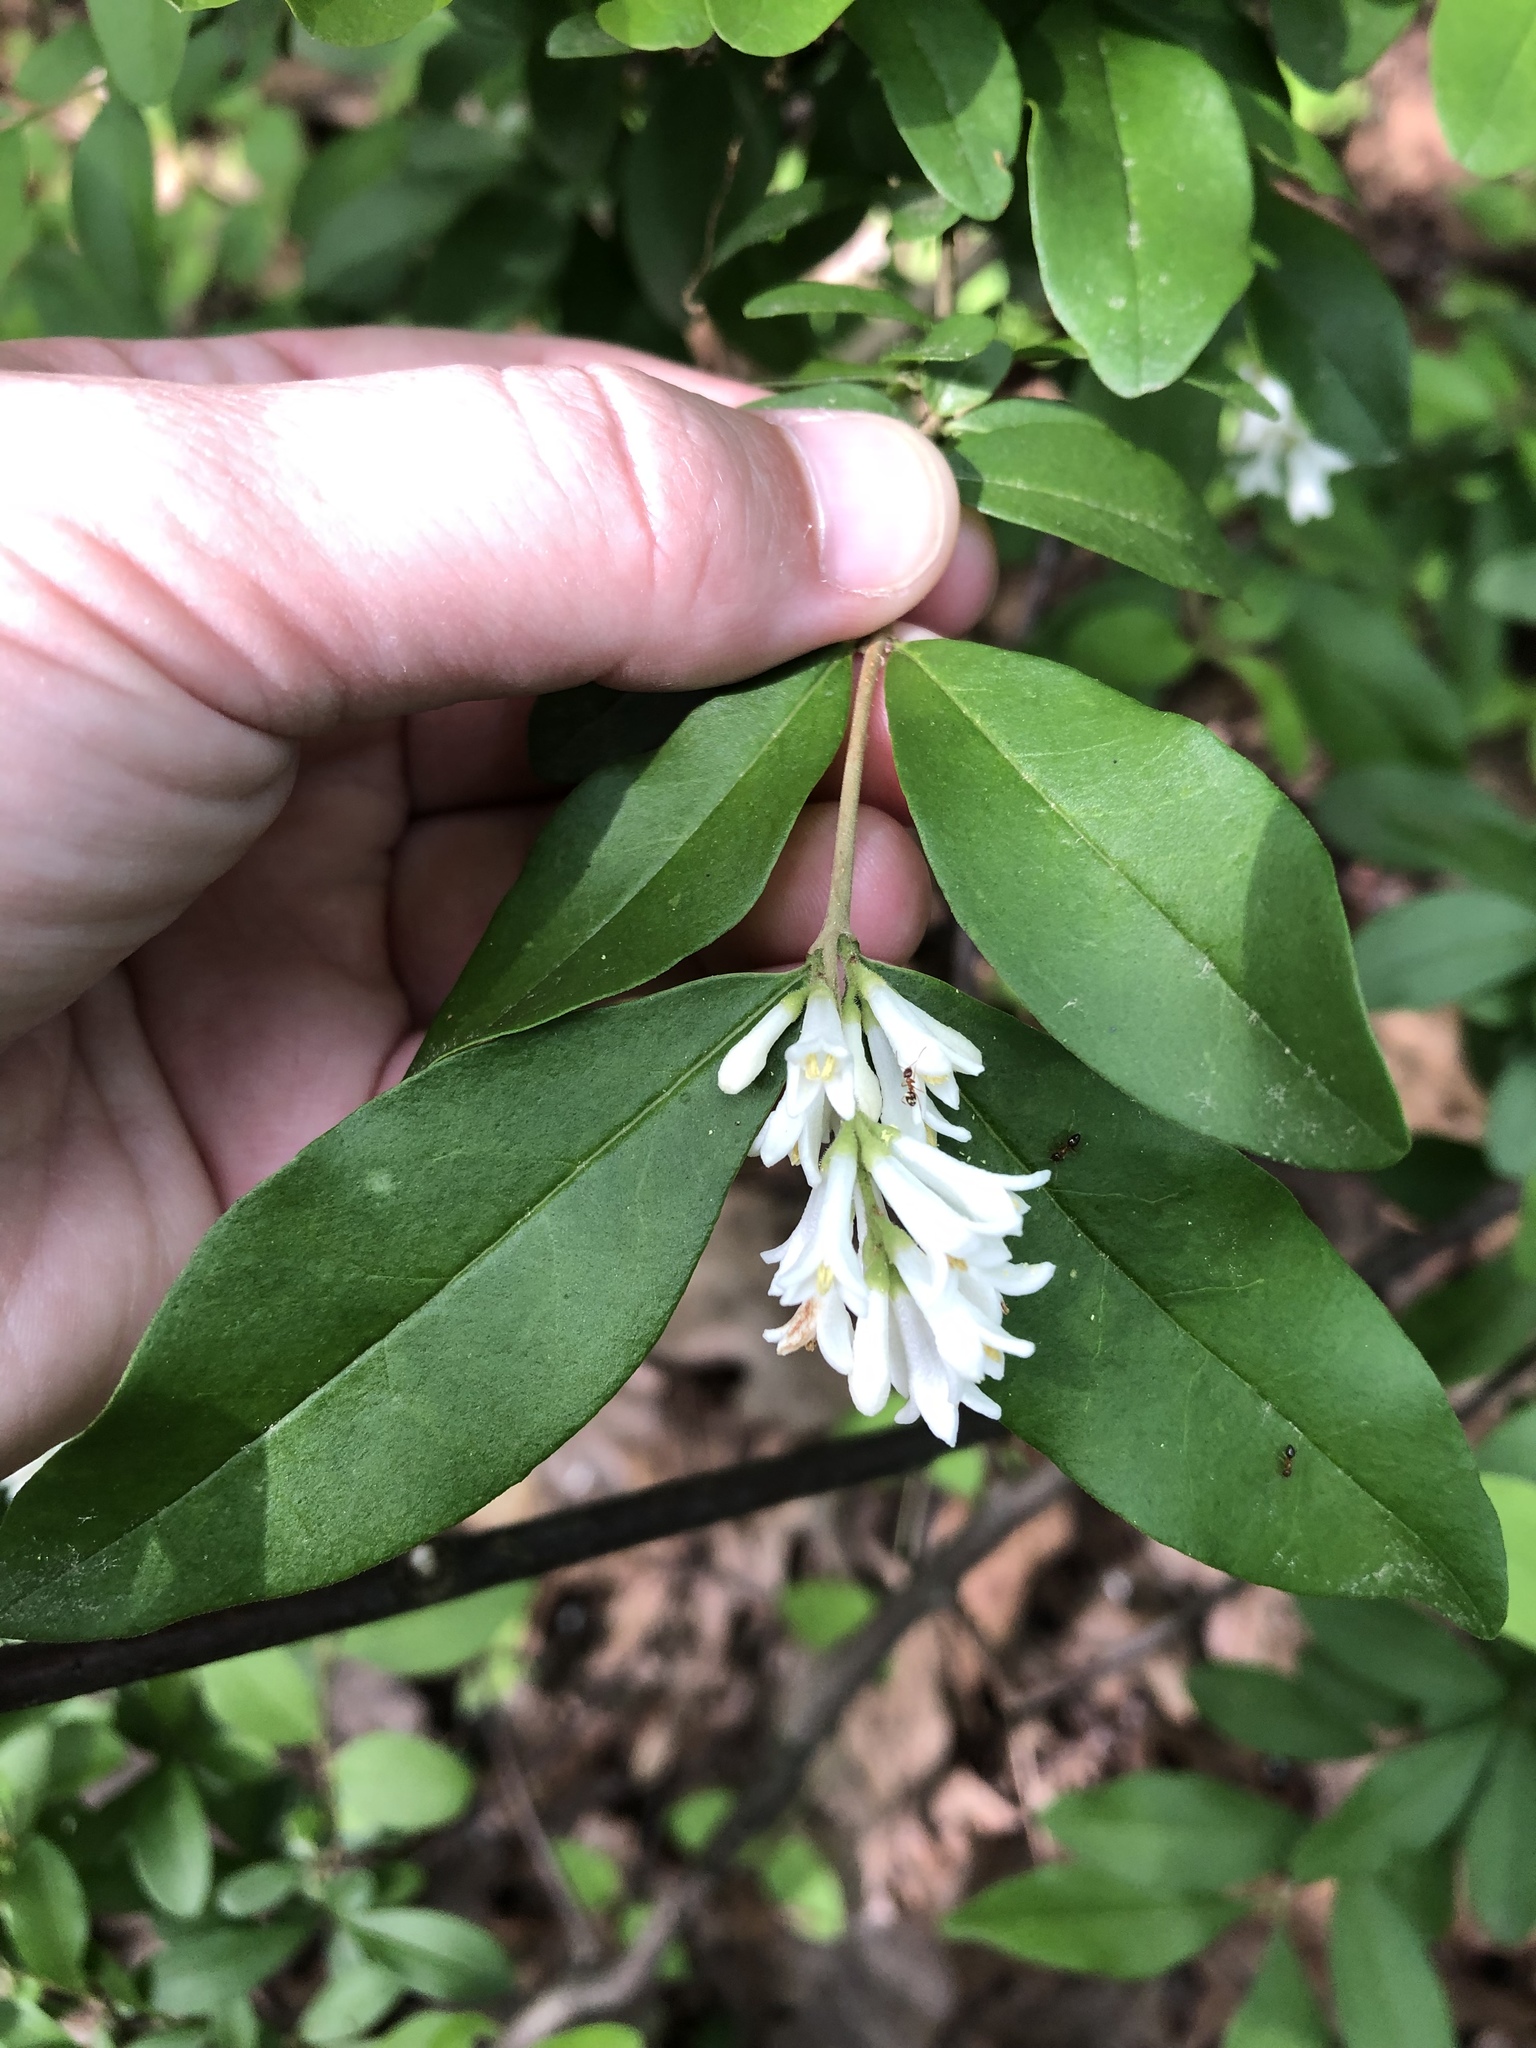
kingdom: Plantae
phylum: Tracheophyta
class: Magnoliopsida
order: Lamiales
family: Oleaceae
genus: Ligustrum
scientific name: Ligustrum obtusifolium
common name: Border privet
